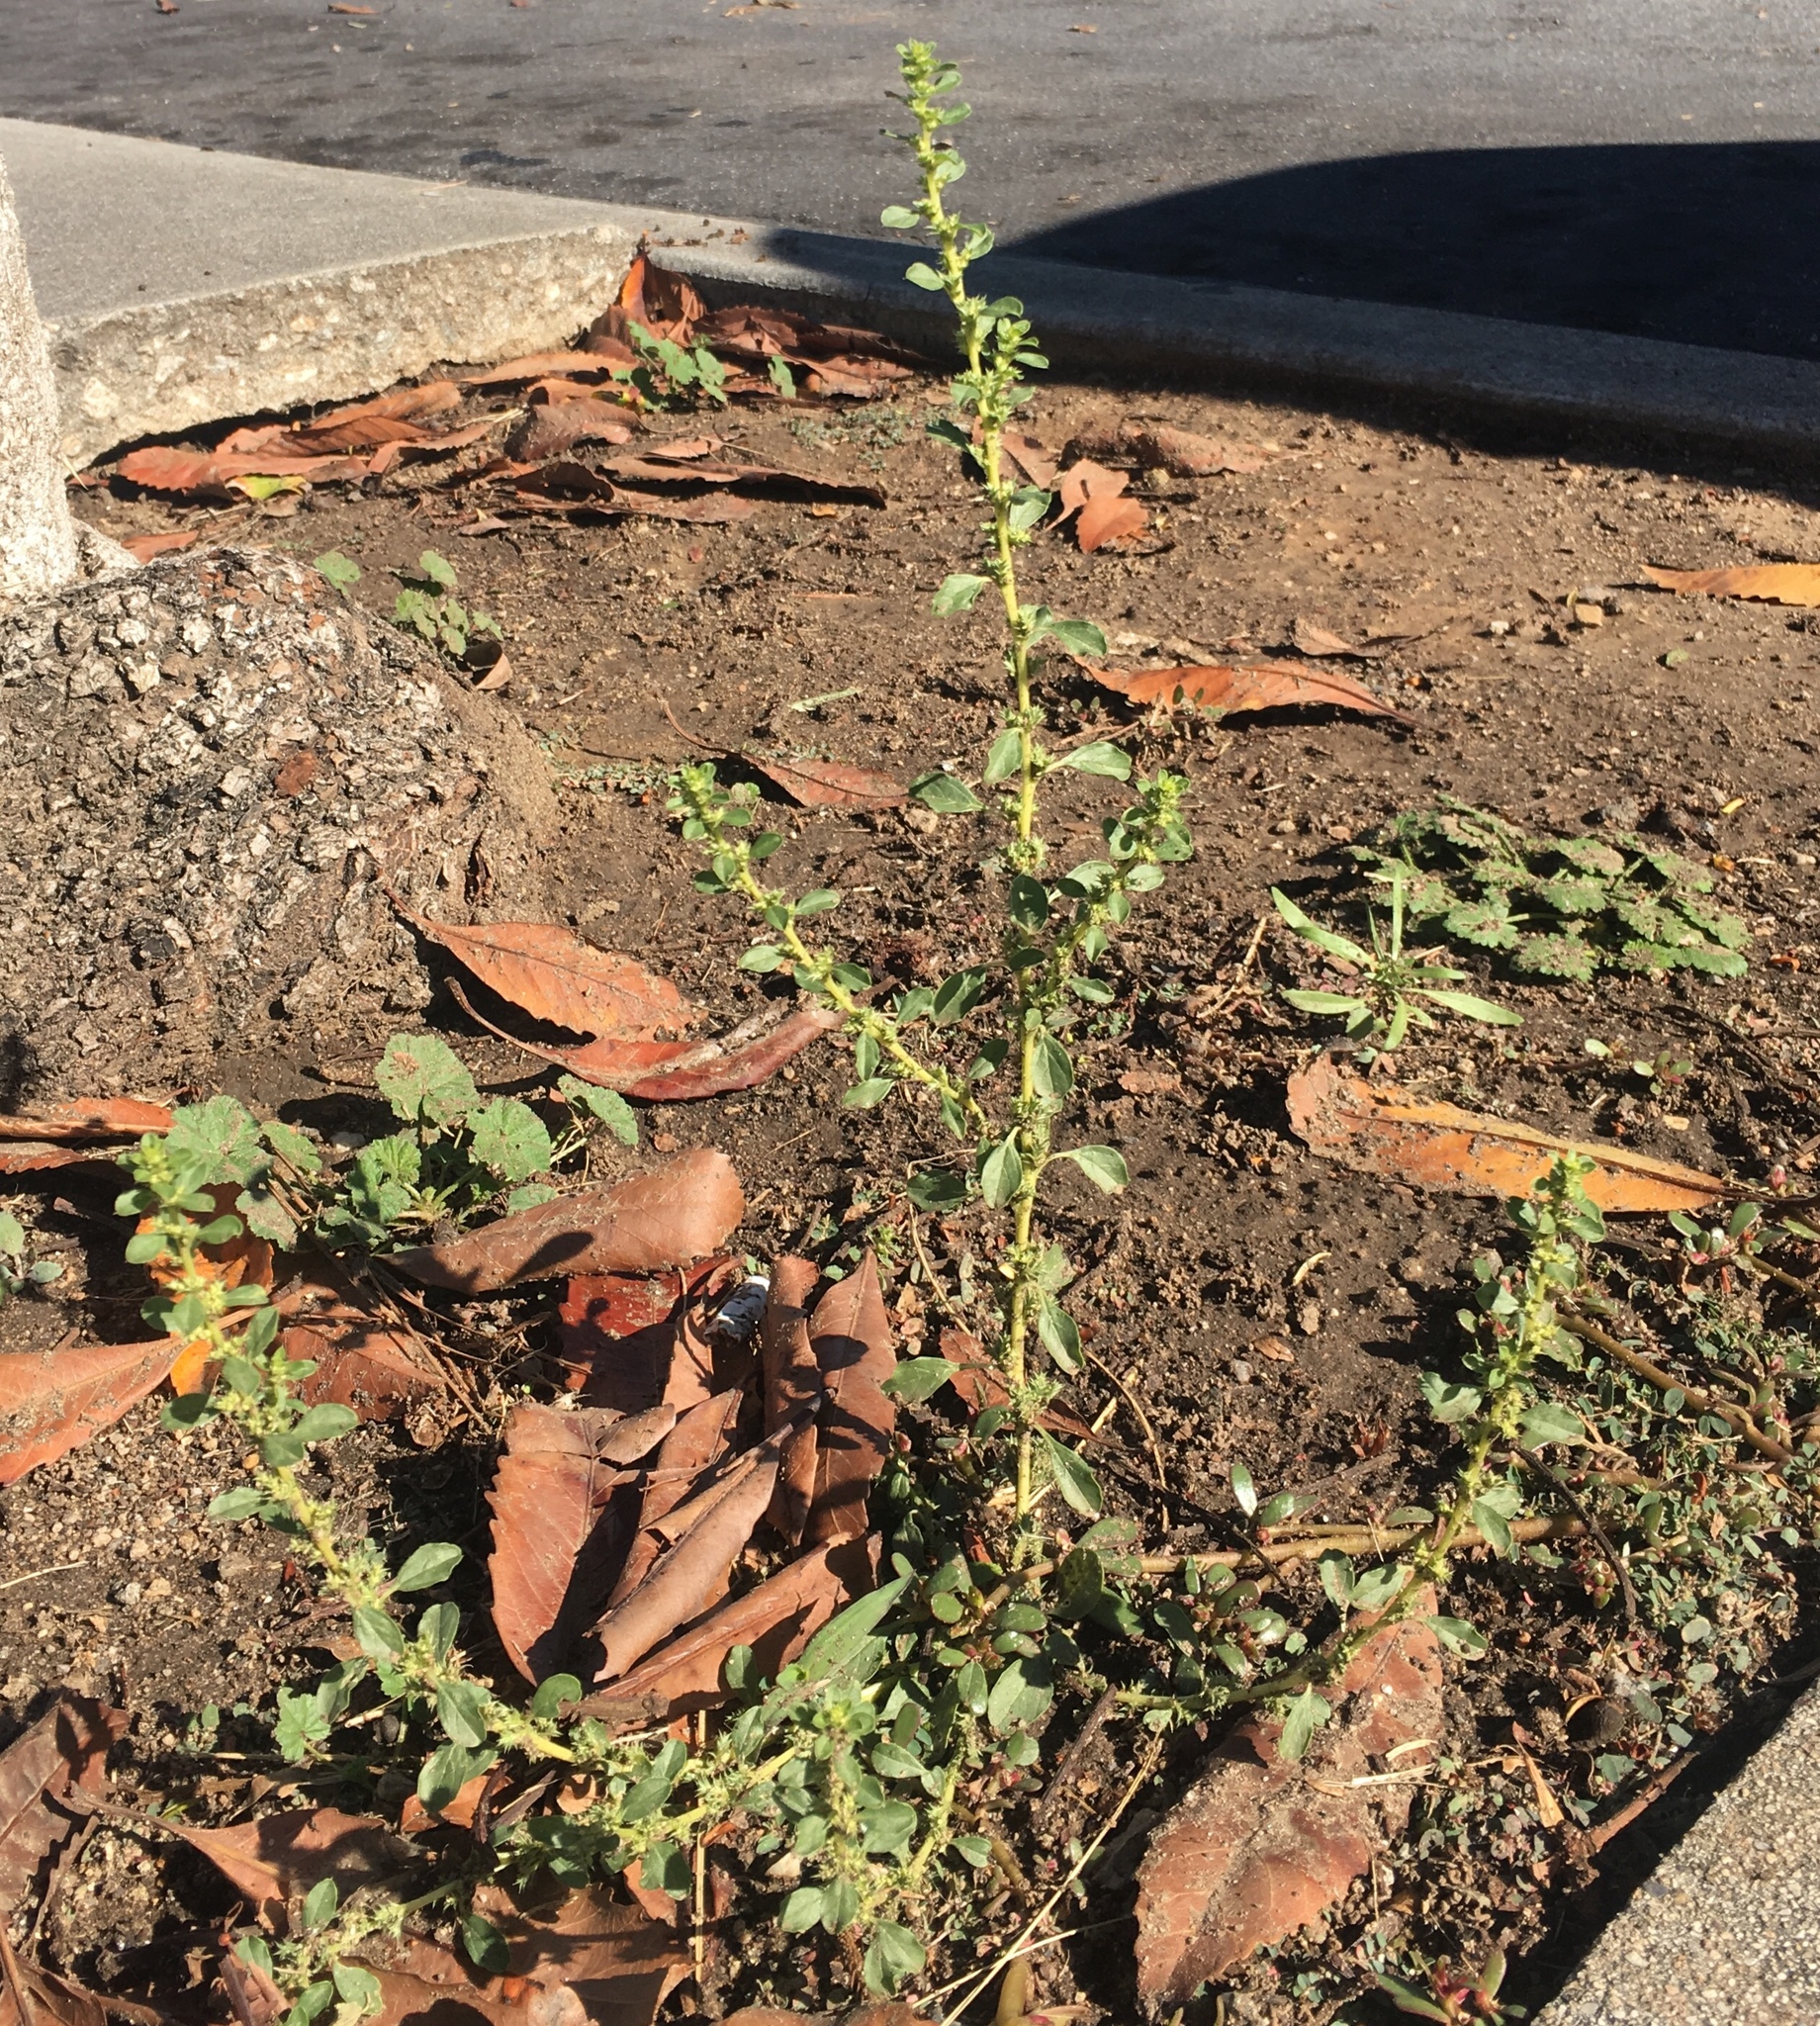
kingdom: Plantae
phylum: Tracheophyta
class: Magnoliopsida
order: Caryophyllales
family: Amaranthaceae
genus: Amaranthus
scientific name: Amaranthus albus
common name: White pigweed
